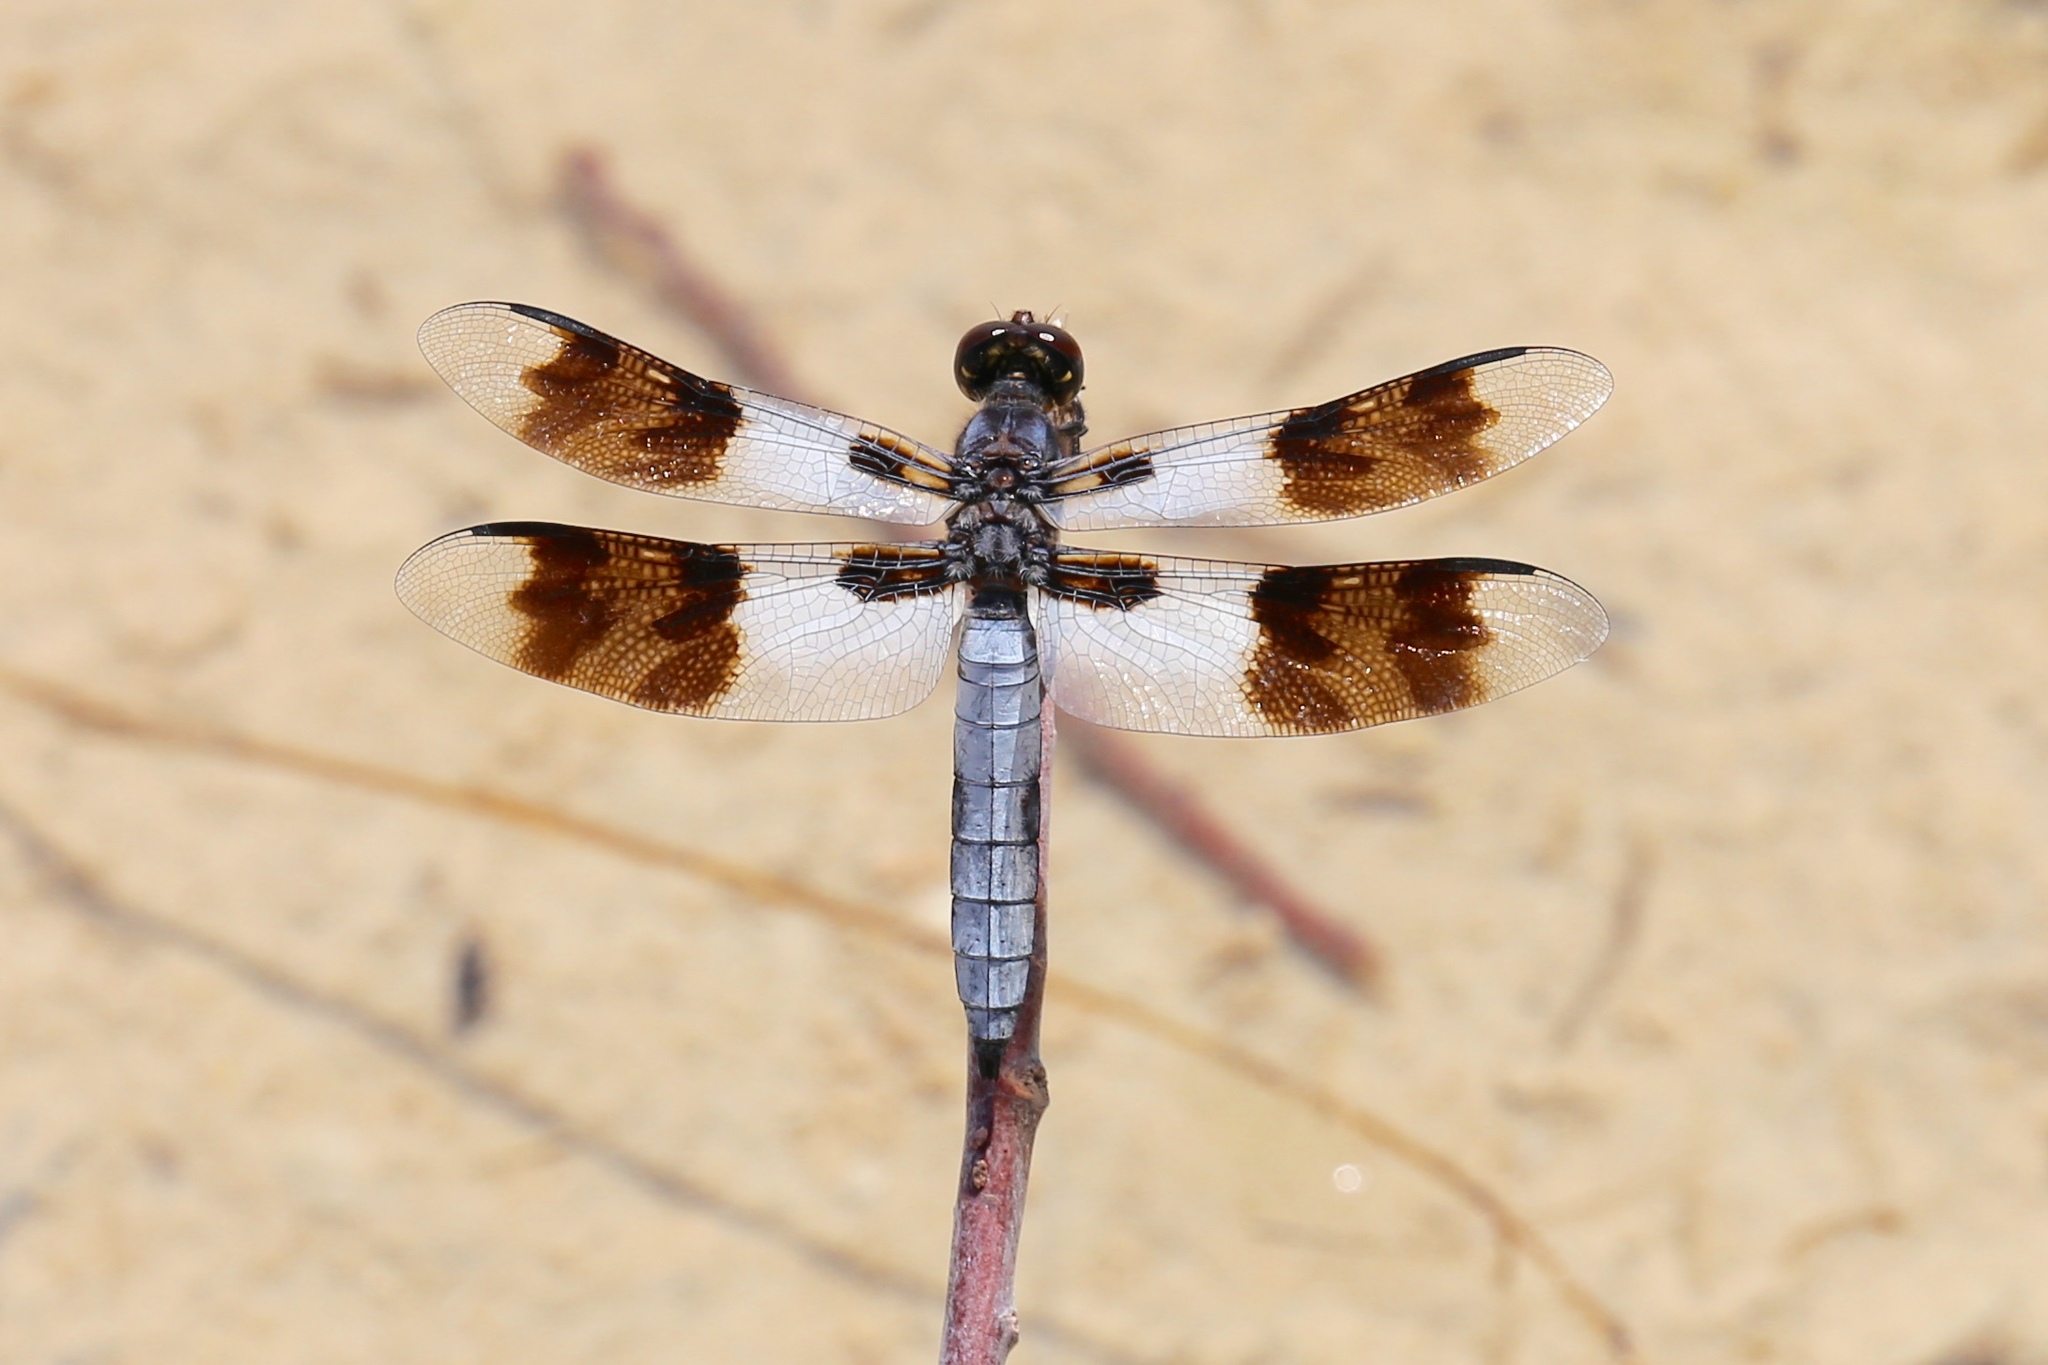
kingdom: Animalia
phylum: Arthropoda
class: Insecta
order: Odonata
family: Libellulidae
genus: Plathemis
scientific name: Plathemis subornata
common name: Desert whitetail
